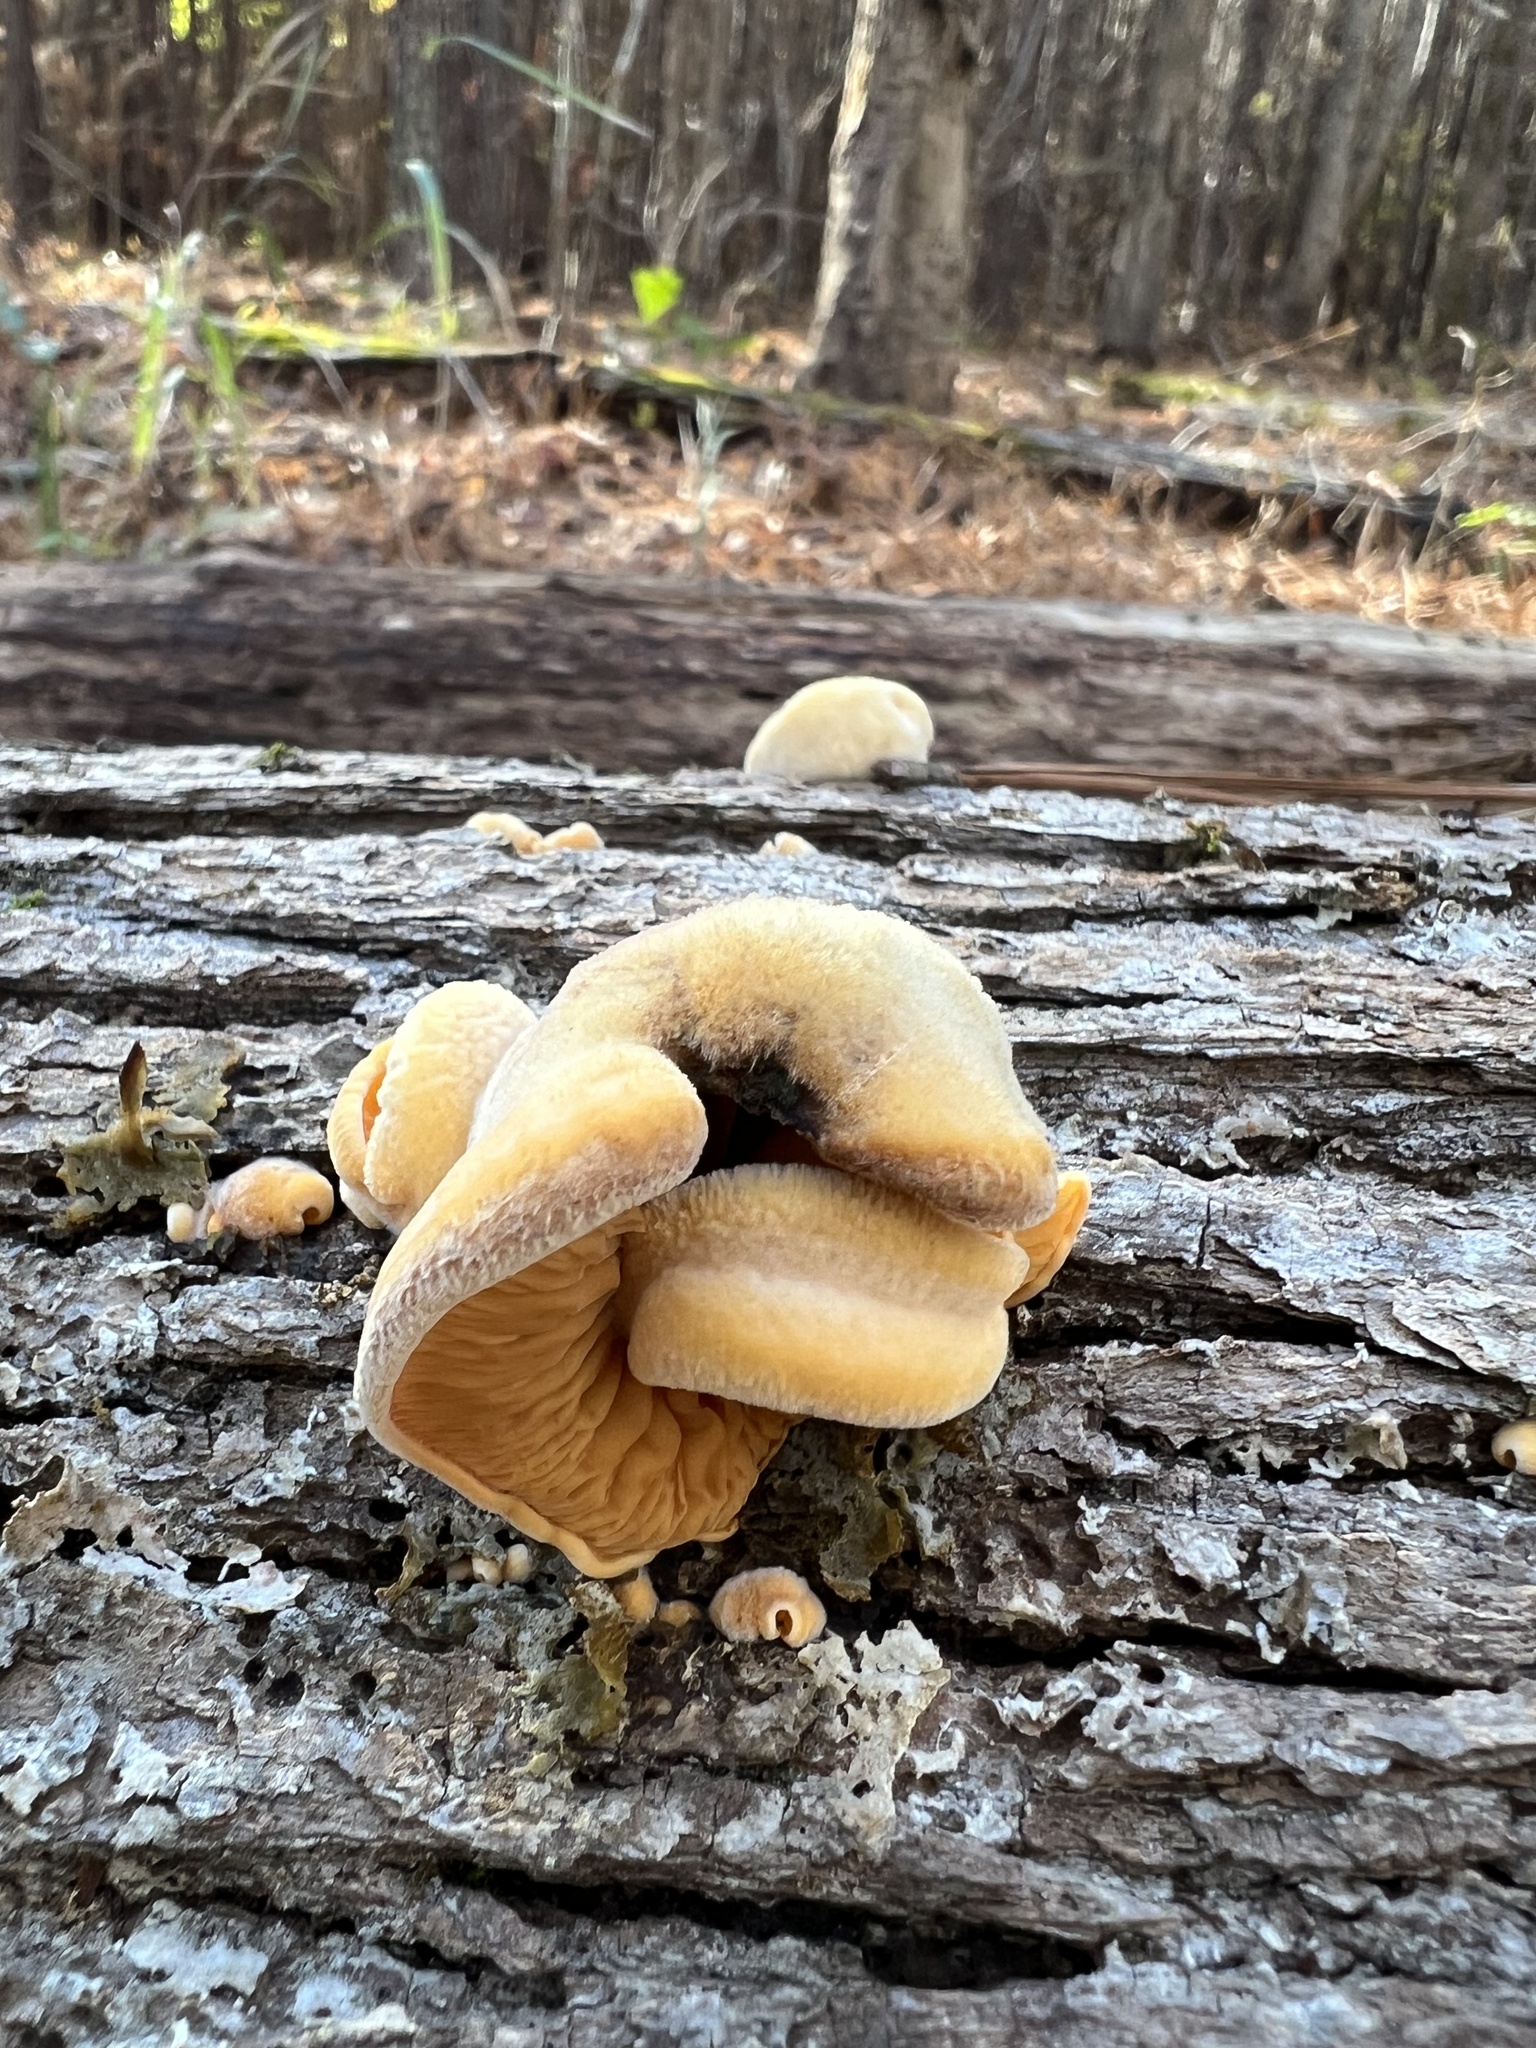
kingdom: Fungi
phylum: Basidiomycota
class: Agaricomycetes
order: Agaricales
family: Phyllotopsidaceae
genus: Phyllotopsis
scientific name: Phyllotopsis nidulans
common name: Orange mock oyster
